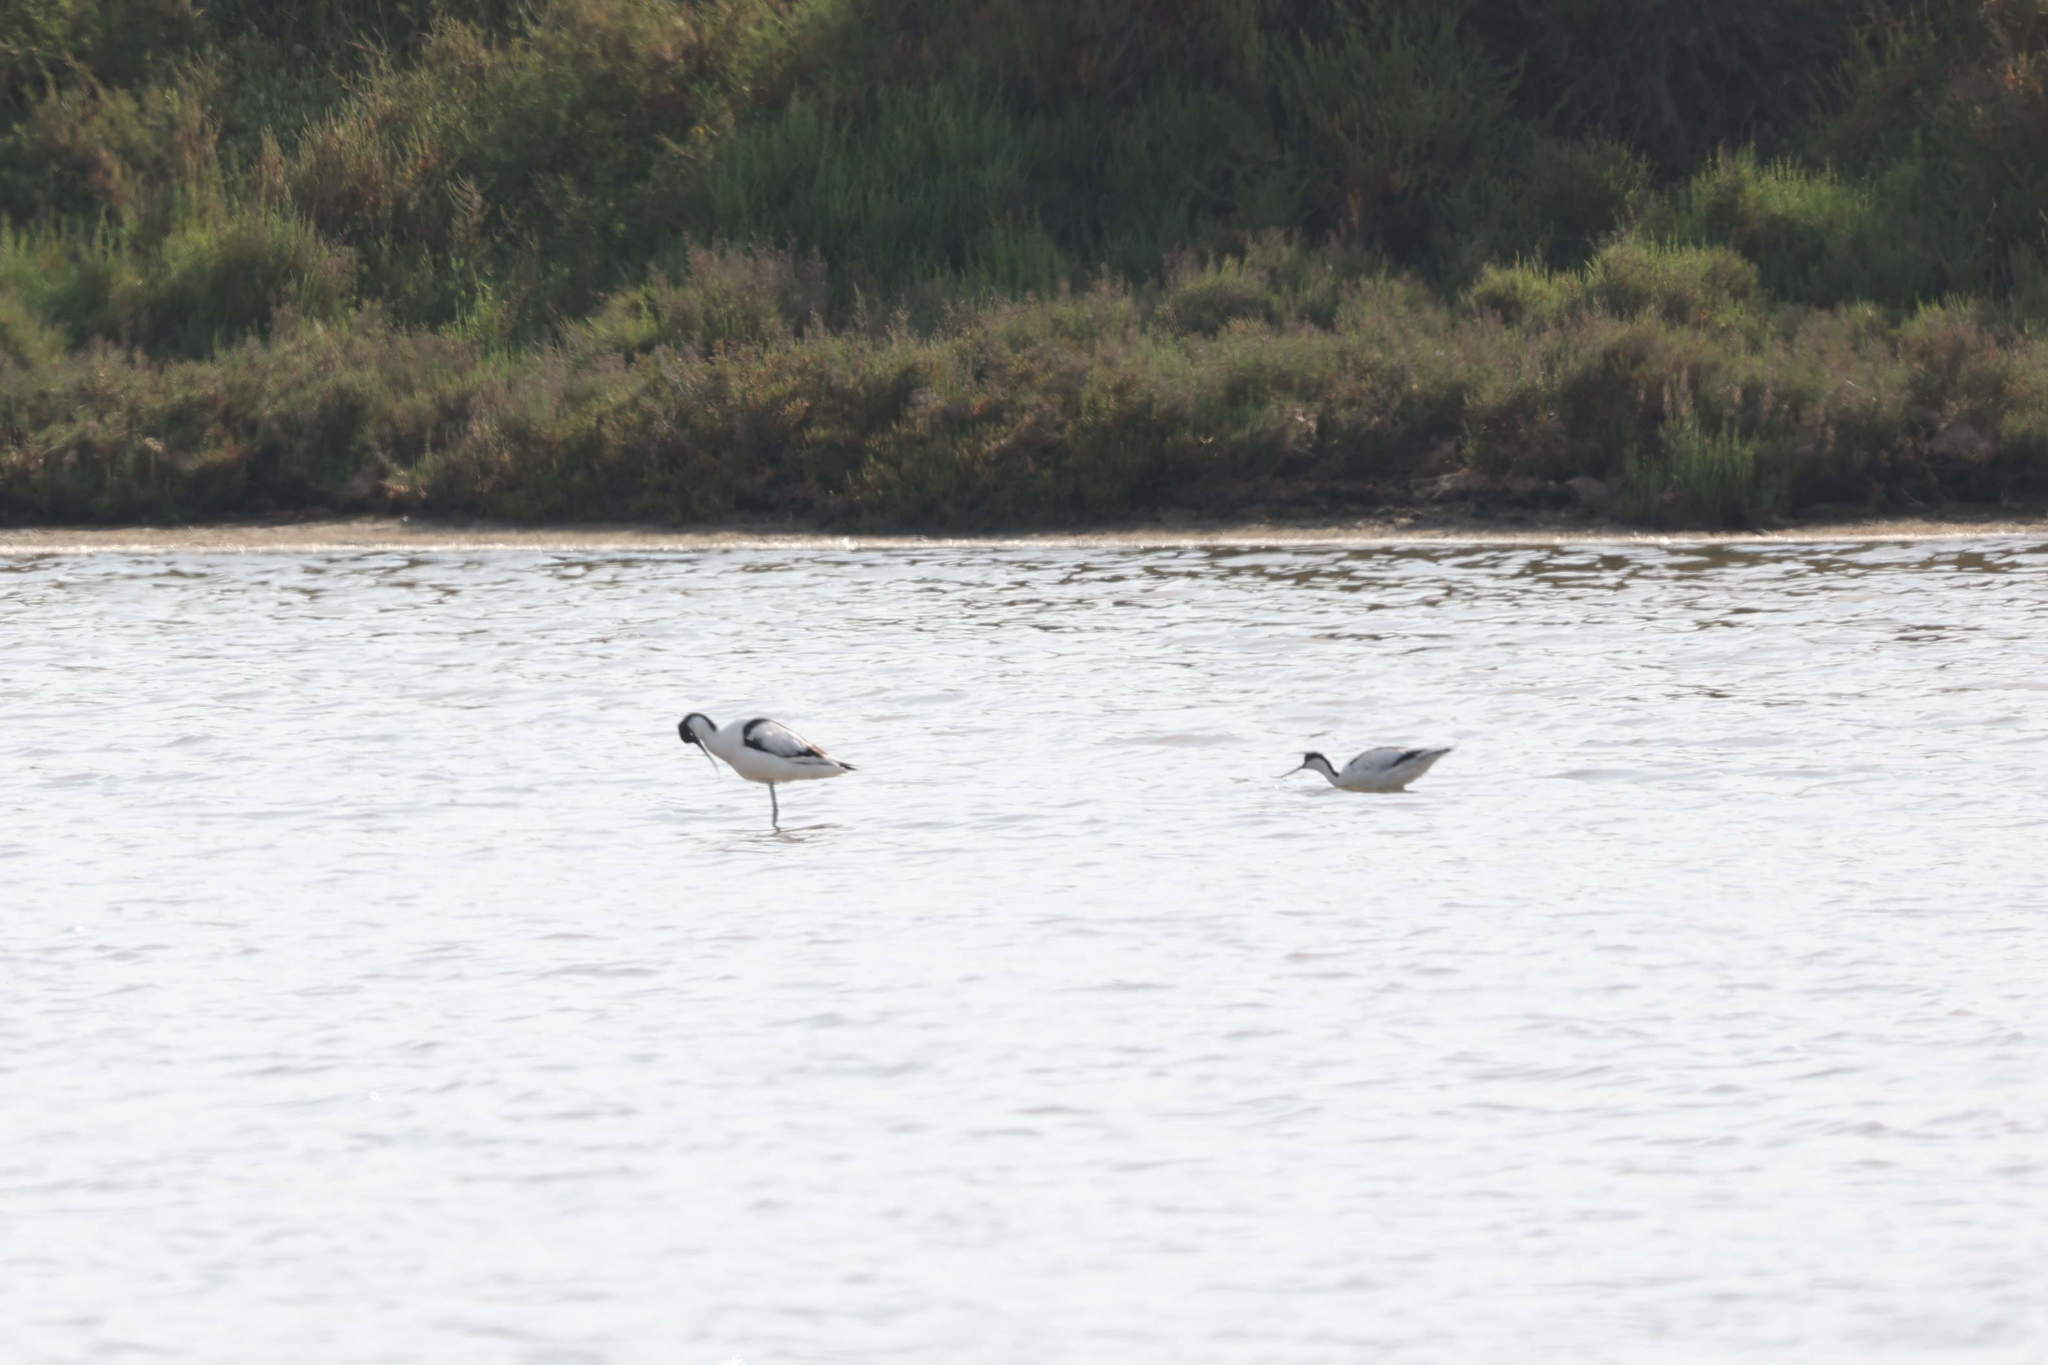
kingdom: Animalia
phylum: Chordata
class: Aves
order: Charadriiformes
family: Recurvirostridae
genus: Recurvirostra
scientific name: Recurvirostra avosetta
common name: Pied avocet
